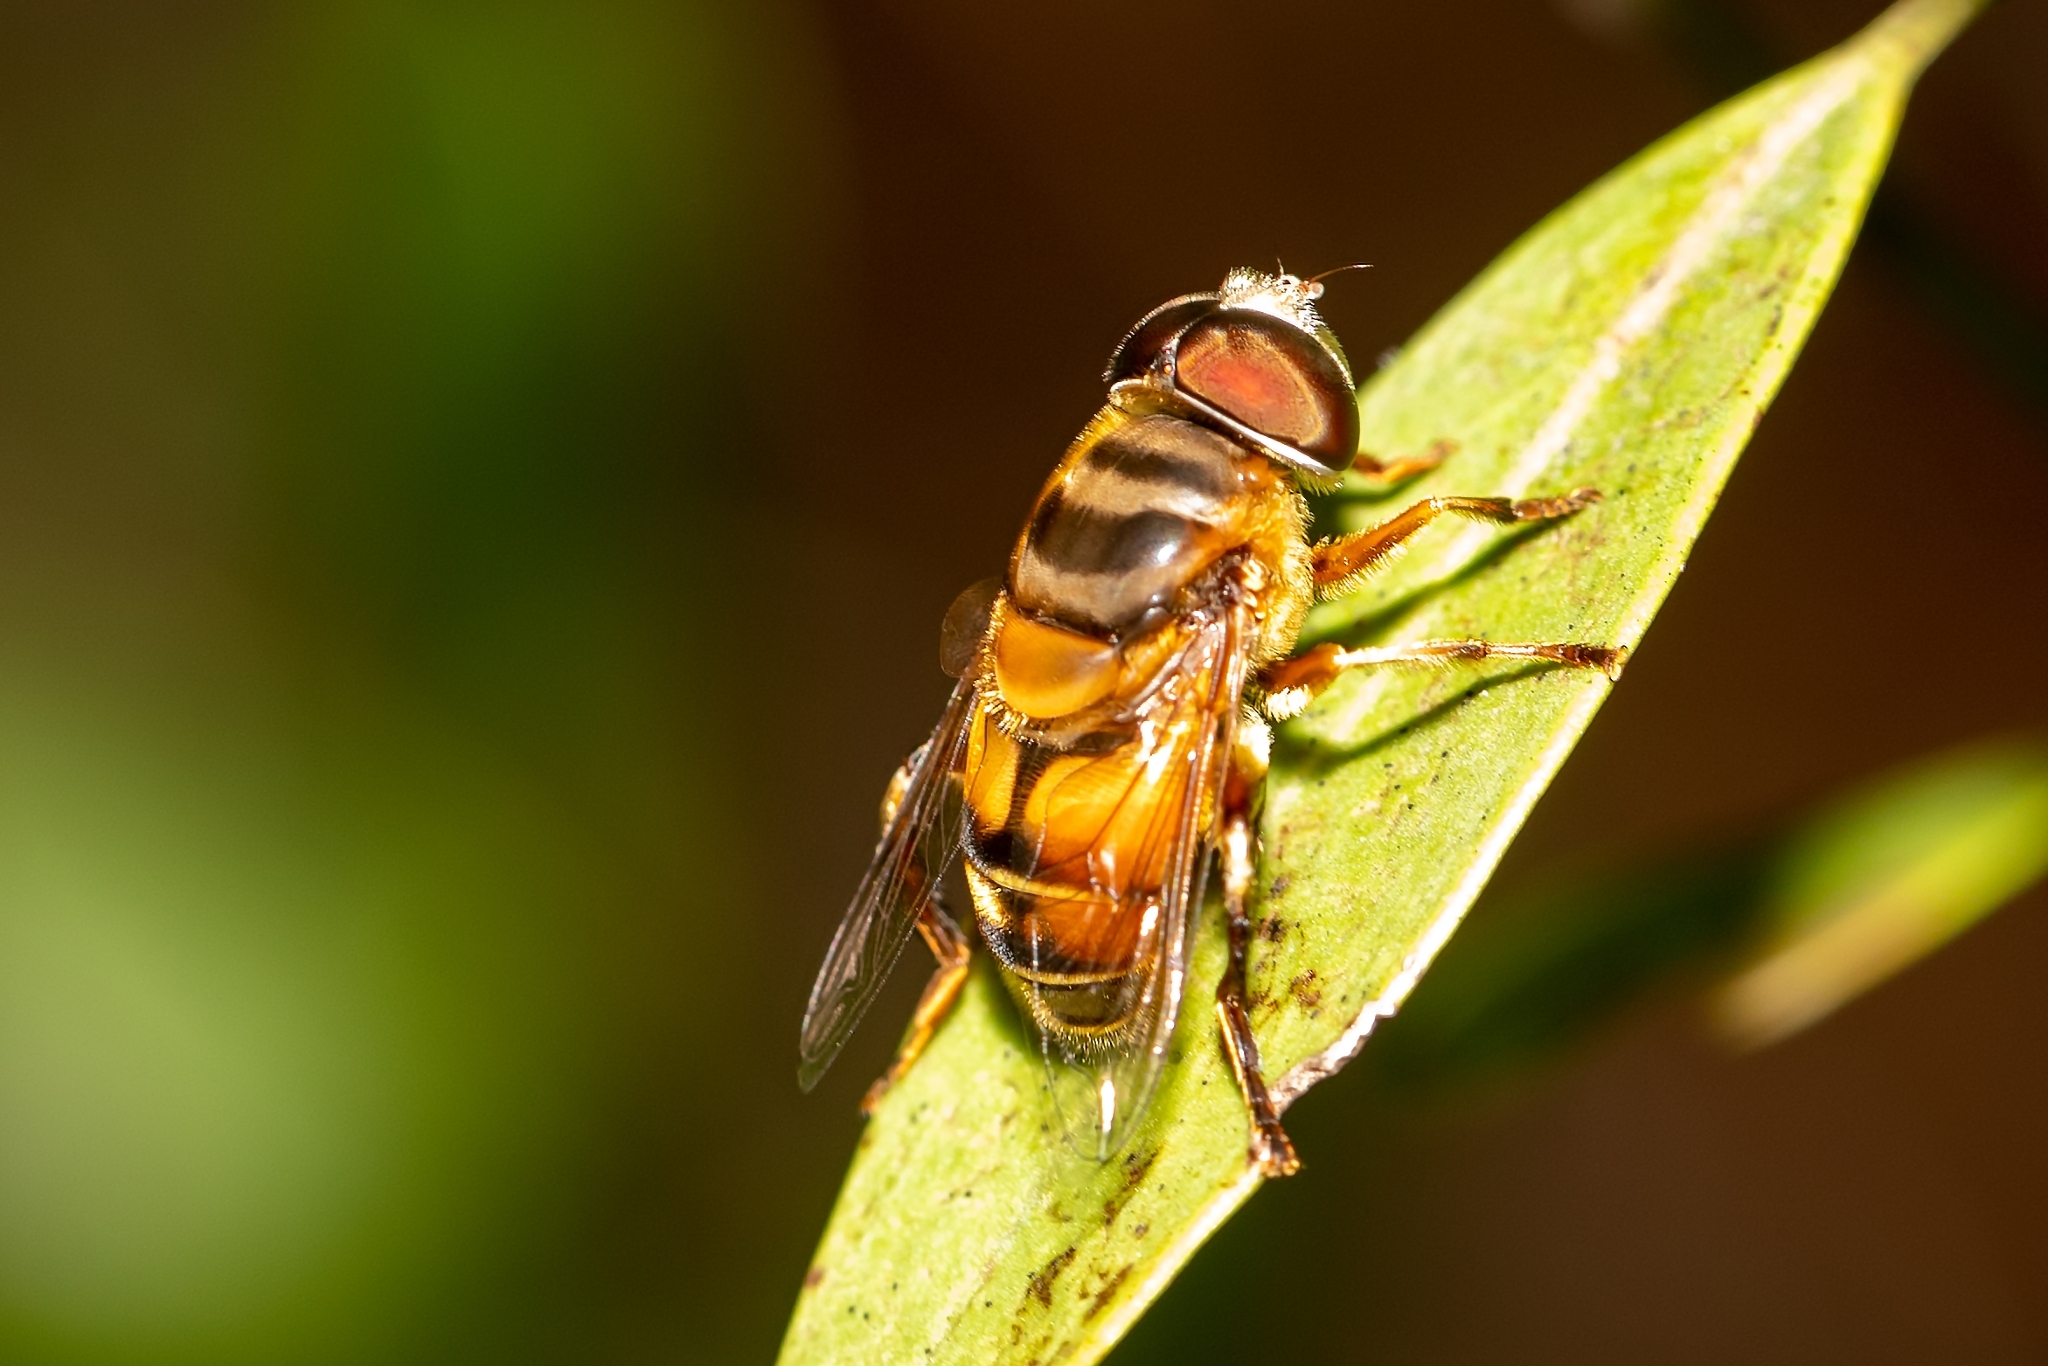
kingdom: Animalia
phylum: Arthropoda
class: Insecta
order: Diptera
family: Syrphidae
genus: Palpada
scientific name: Palpada vinetorum
